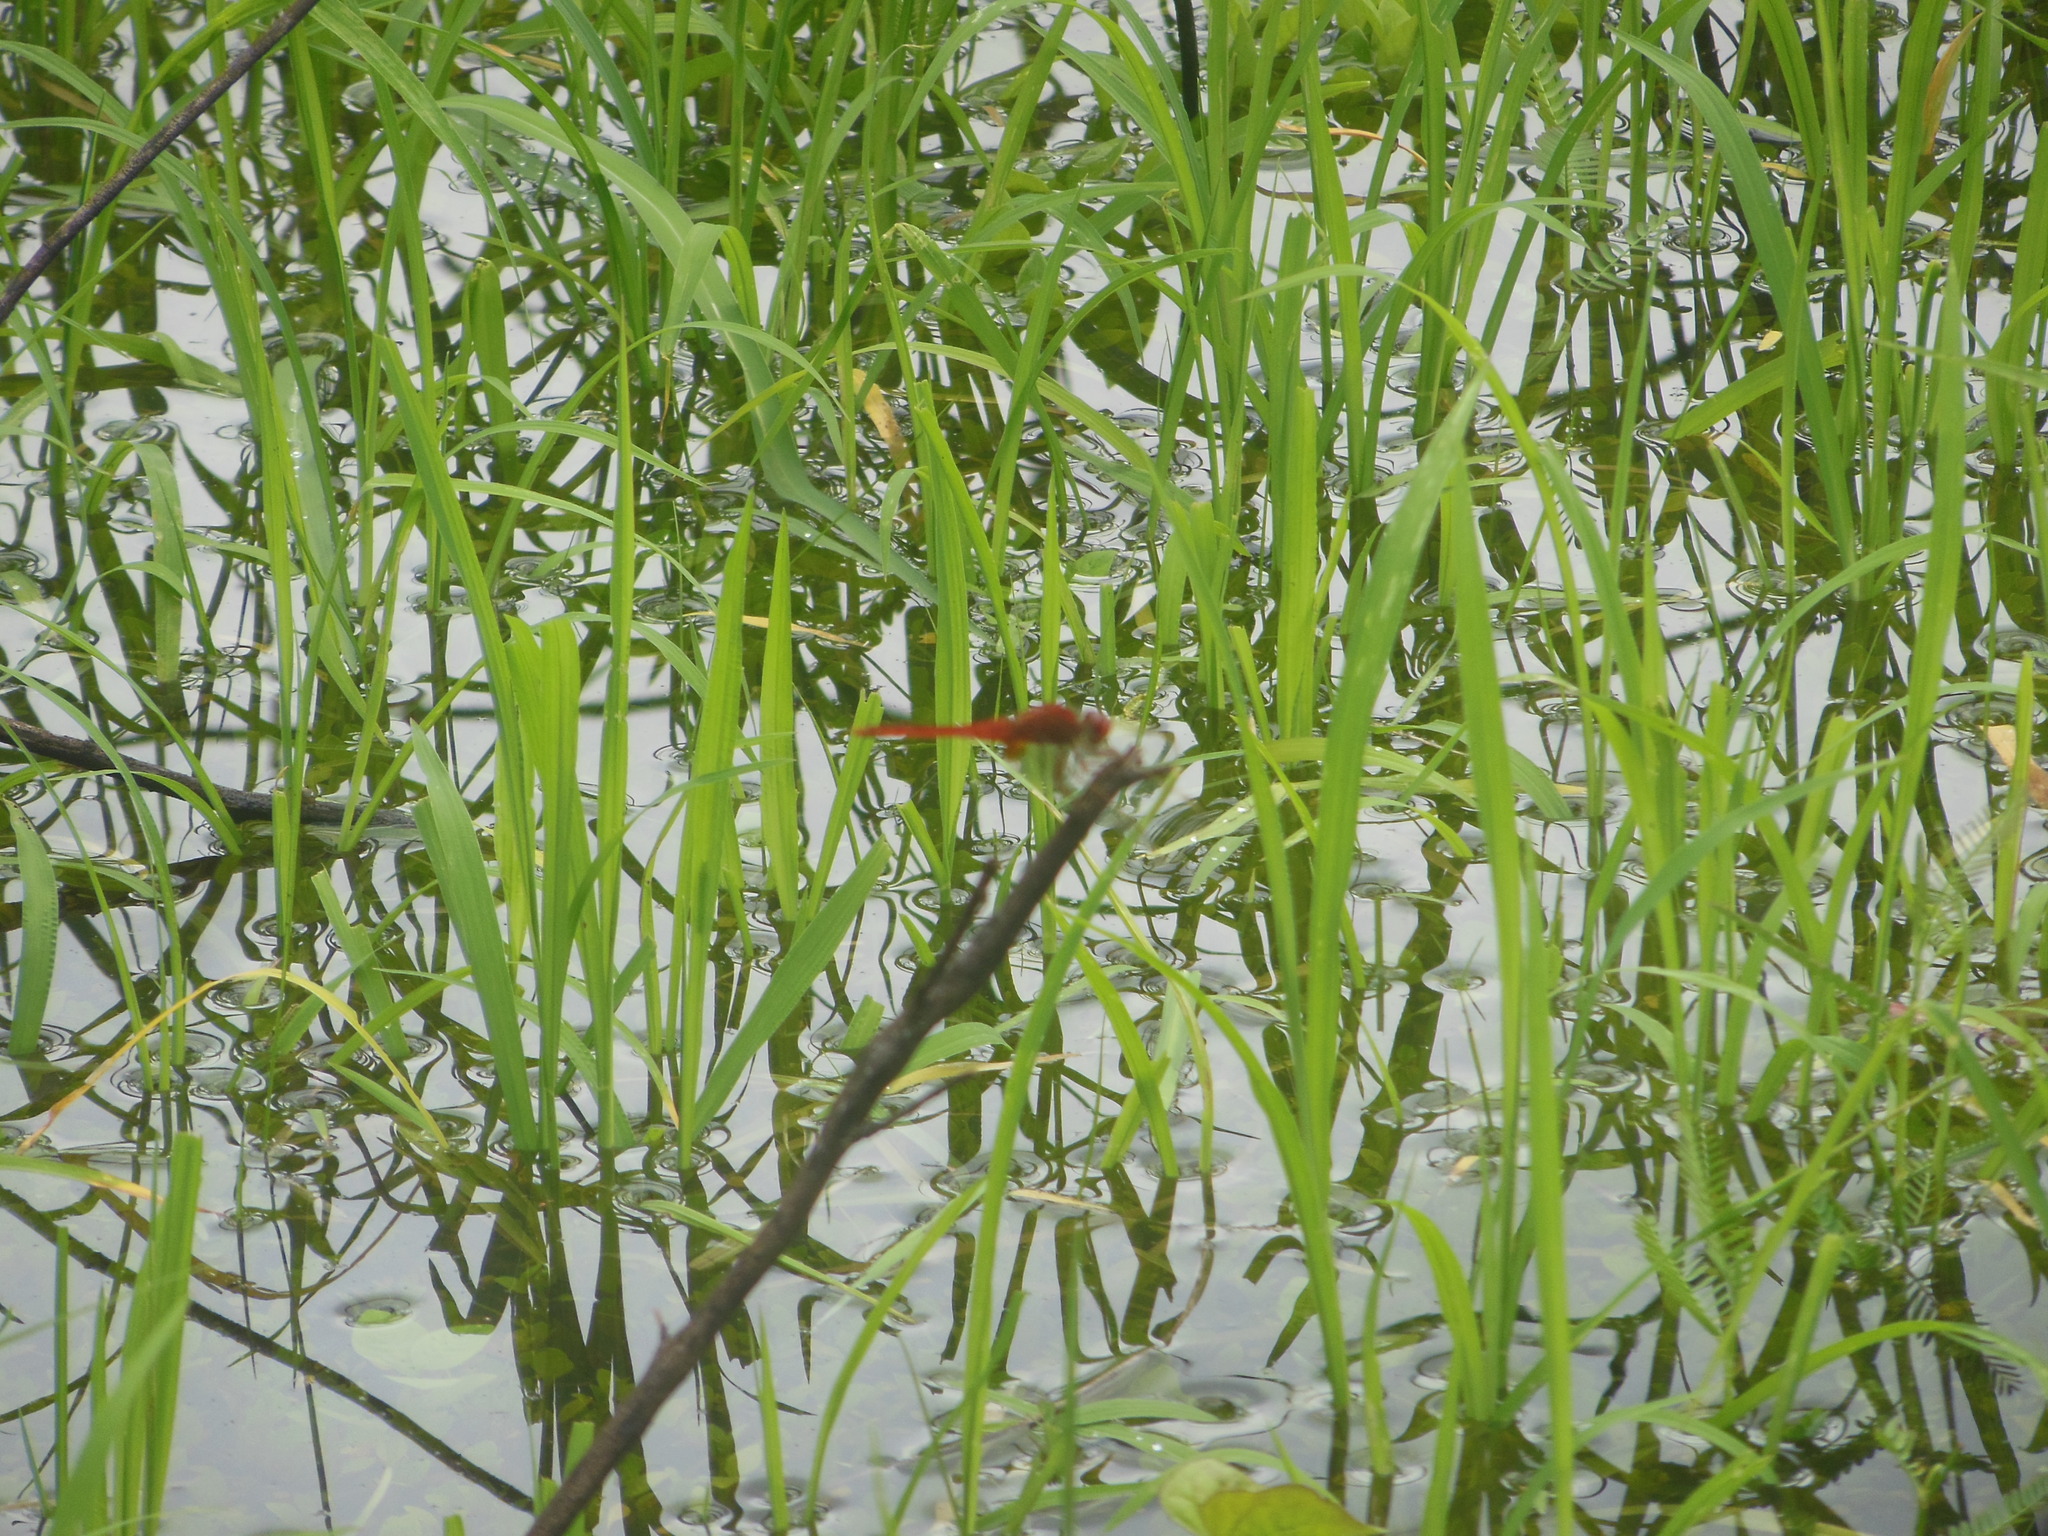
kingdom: Animalia
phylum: Arthropoda
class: Insecta
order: Odonata
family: Libellulidae
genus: Crocothemis
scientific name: Crocothemis servilia
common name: Scarlet skimmer
